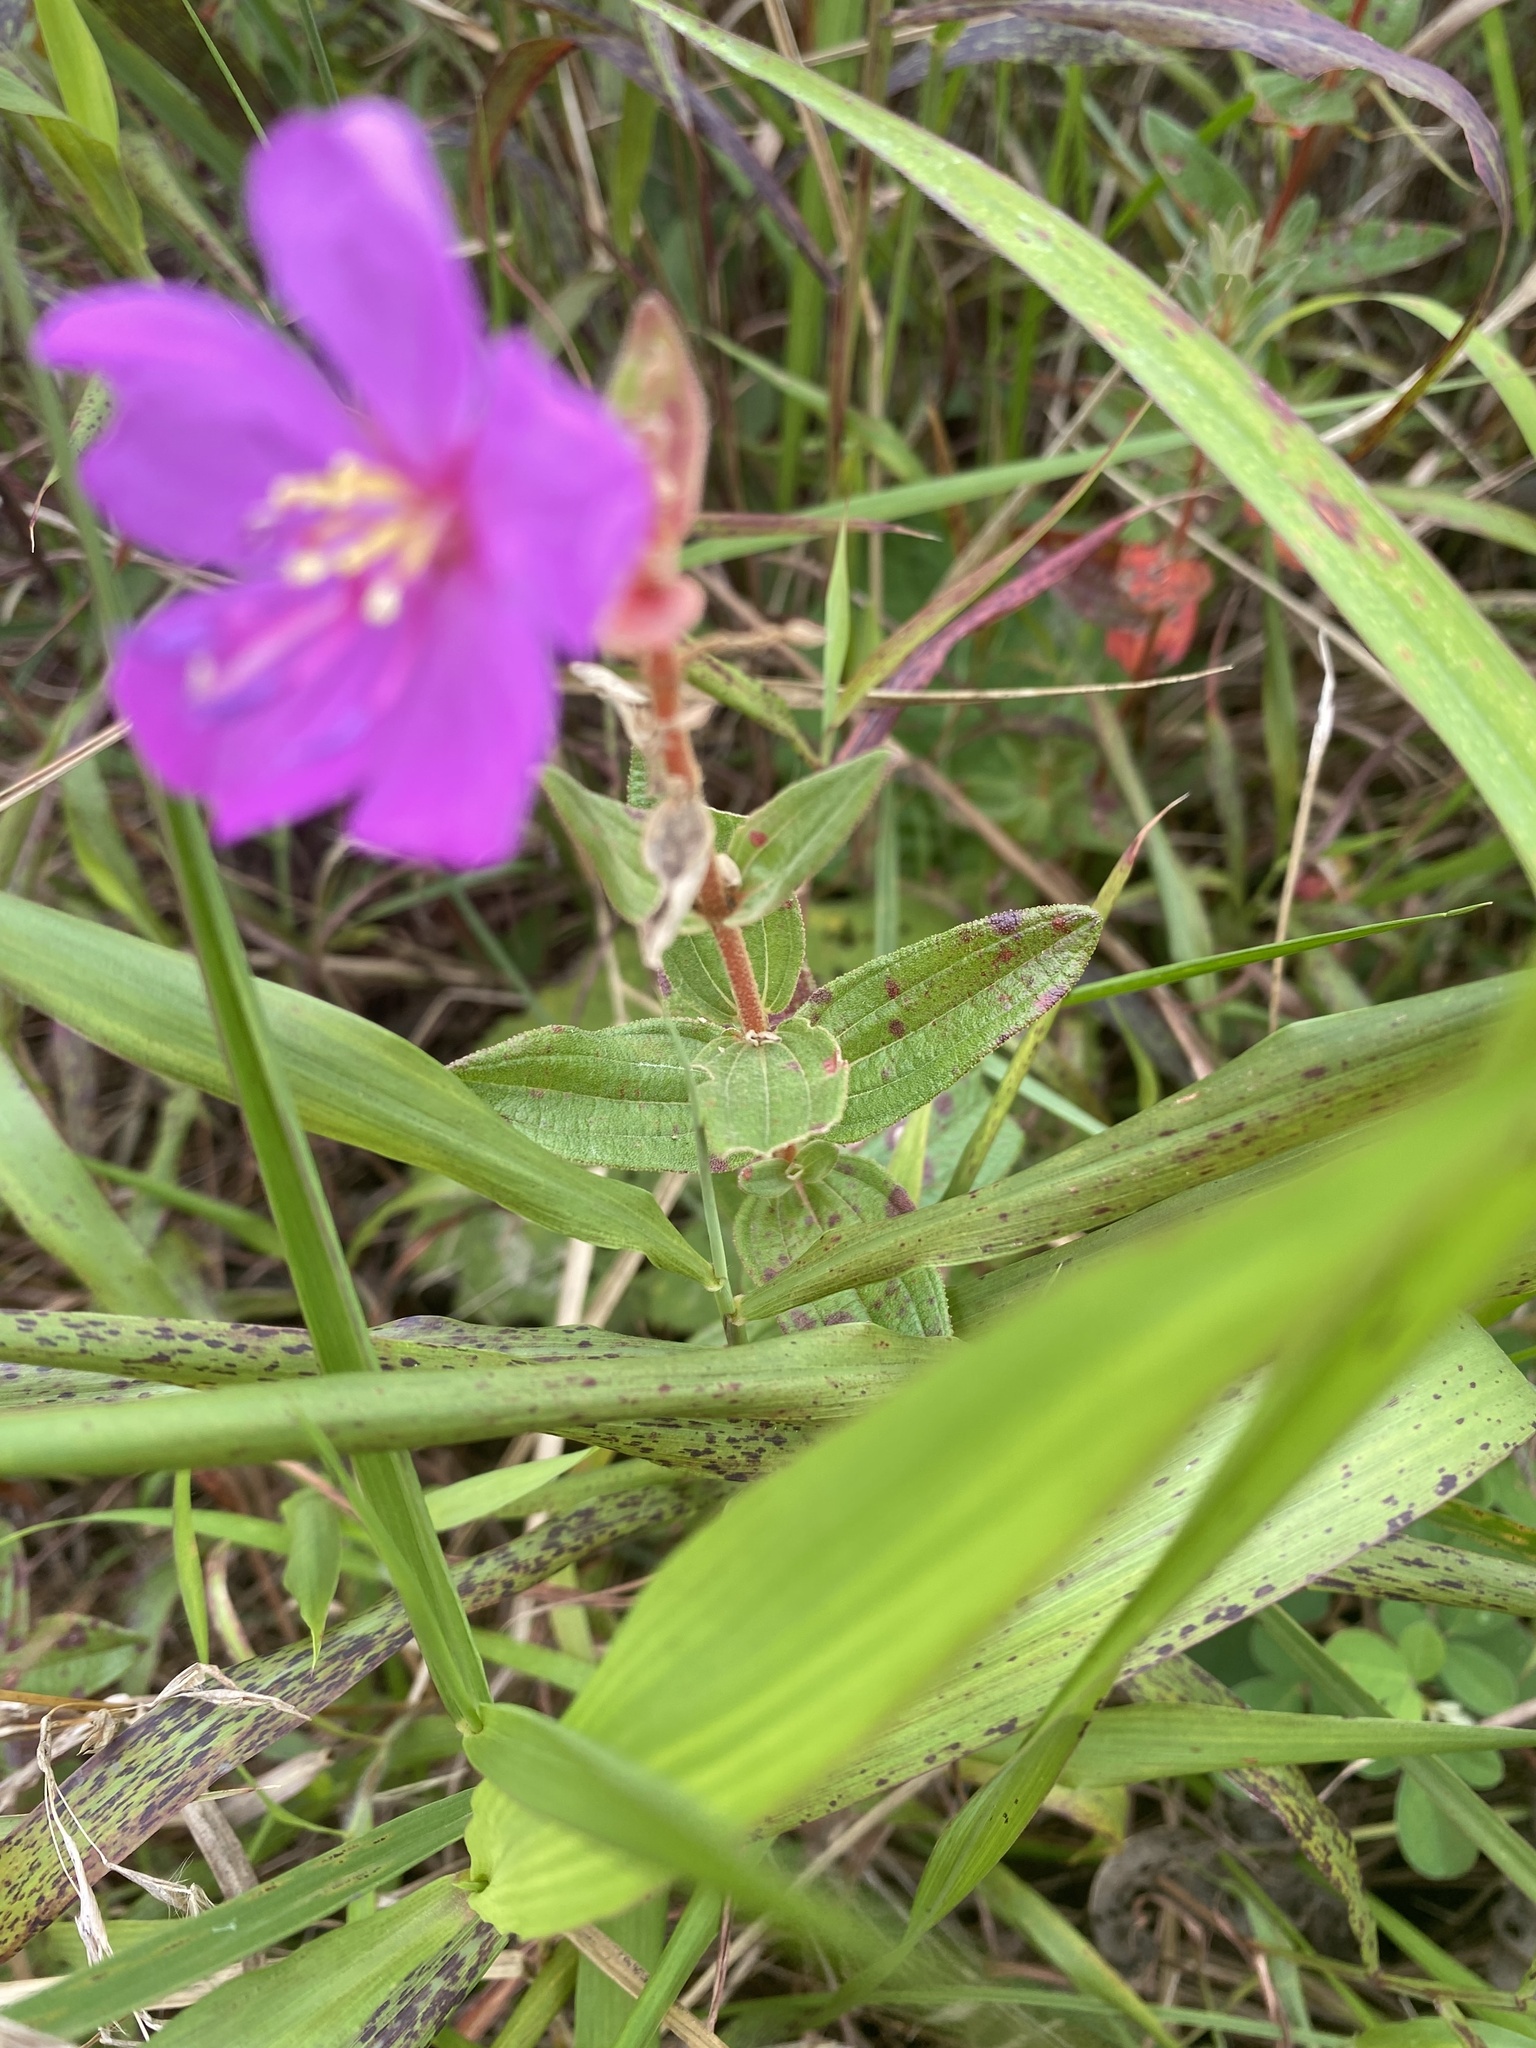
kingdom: Plantae
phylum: Tracheophyta
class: Magnoliopsida
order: Myrtales
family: Melastomataceae
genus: Argyrella
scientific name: Argyrella canescens
